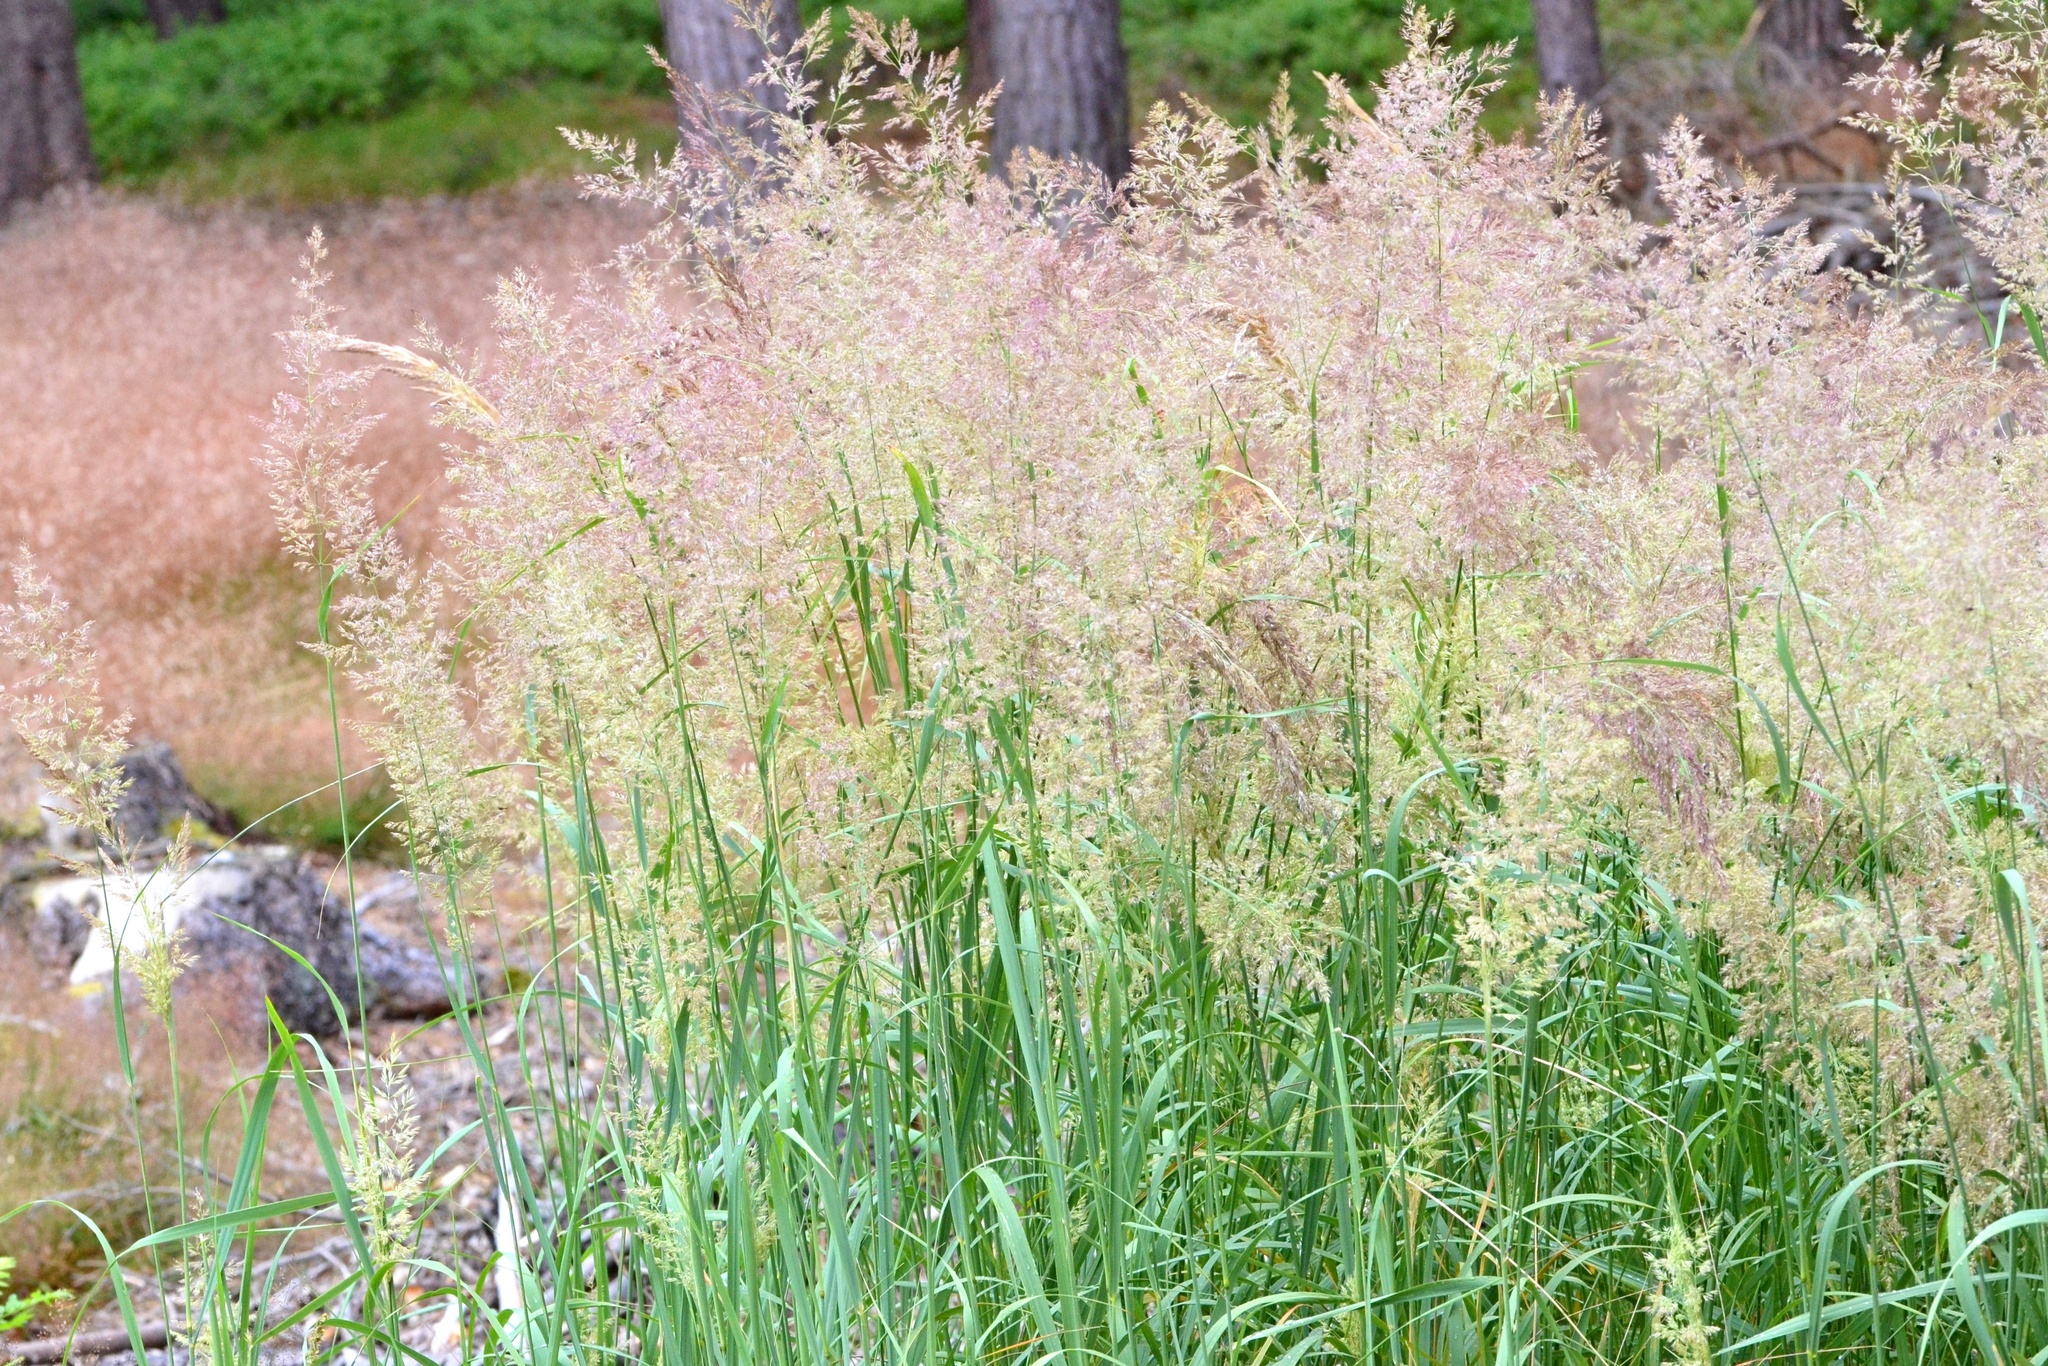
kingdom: Plantae
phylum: Tracheophyta
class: Liliopsida
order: Poales
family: Poaceae
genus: Calamagrostis
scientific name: Calamagrostis epigejos
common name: Wood small-reed
